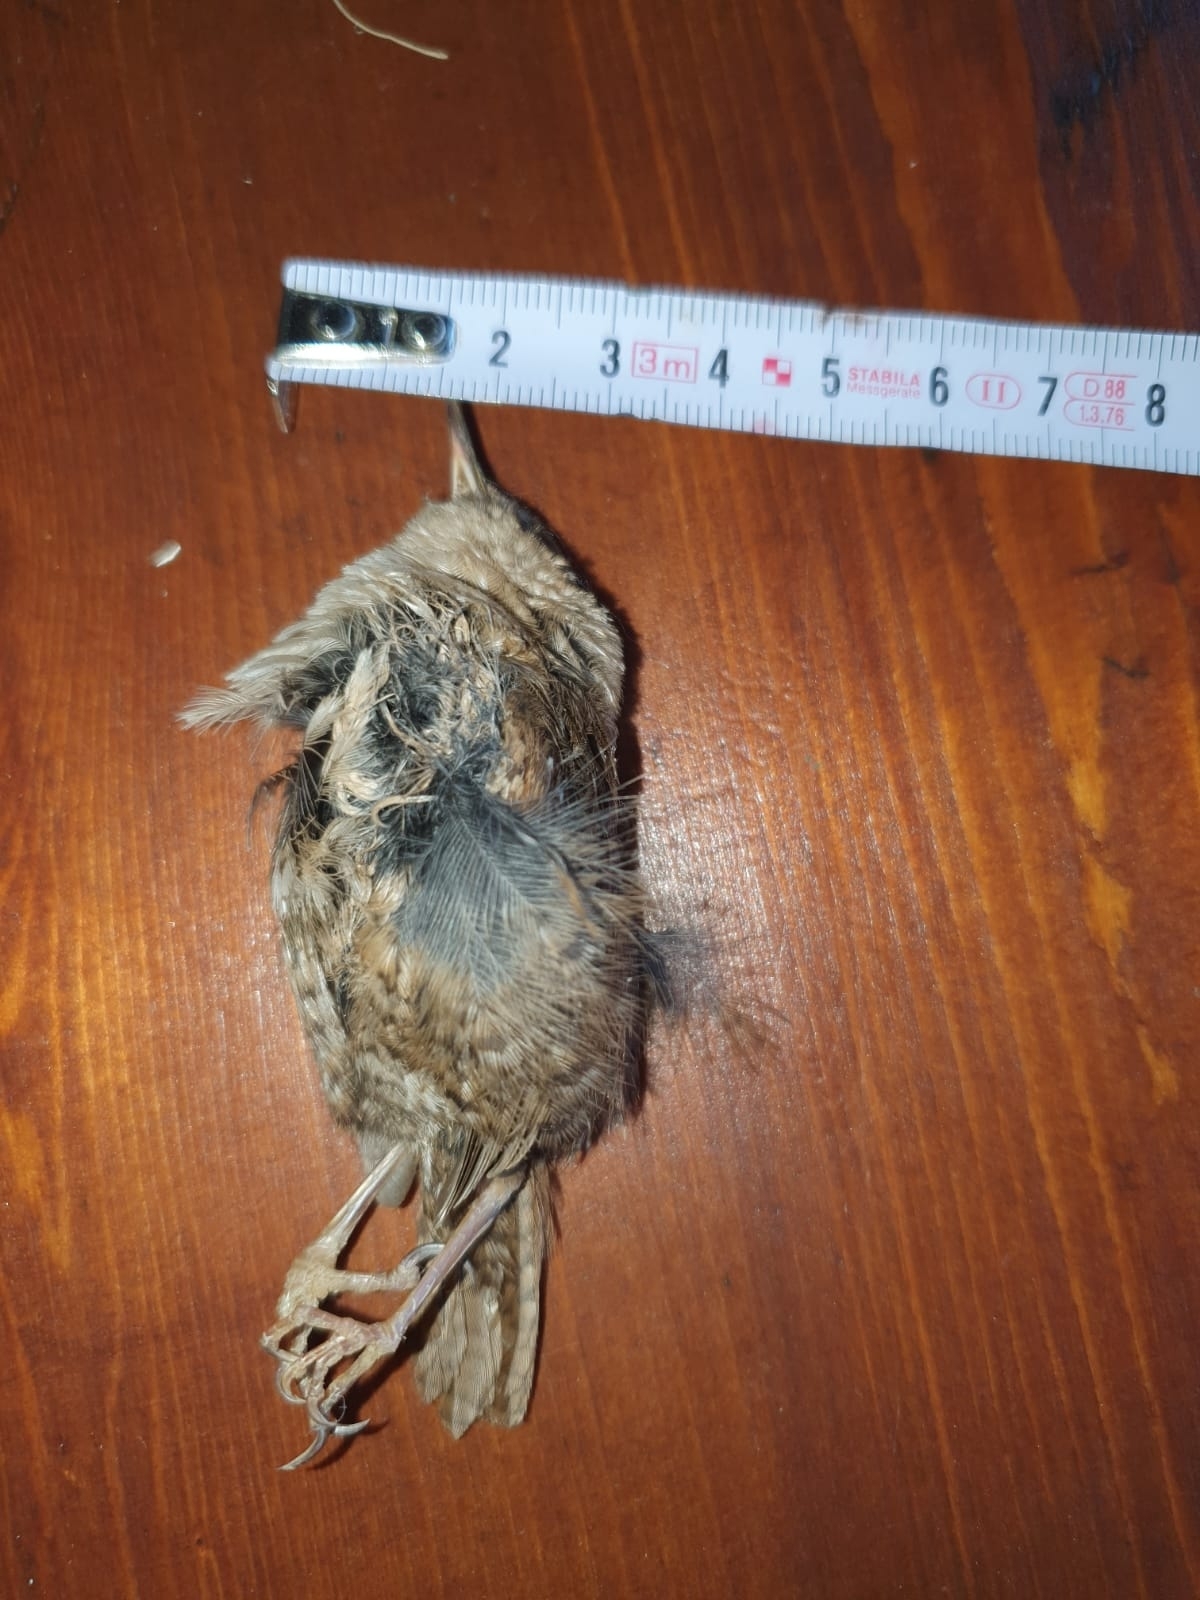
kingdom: Animalia
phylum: Chordata
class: Aves
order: Passeriformes
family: Troglodytidae
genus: Troglodytes
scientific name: Troglodytes troglodytes
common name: Eurasian wren
